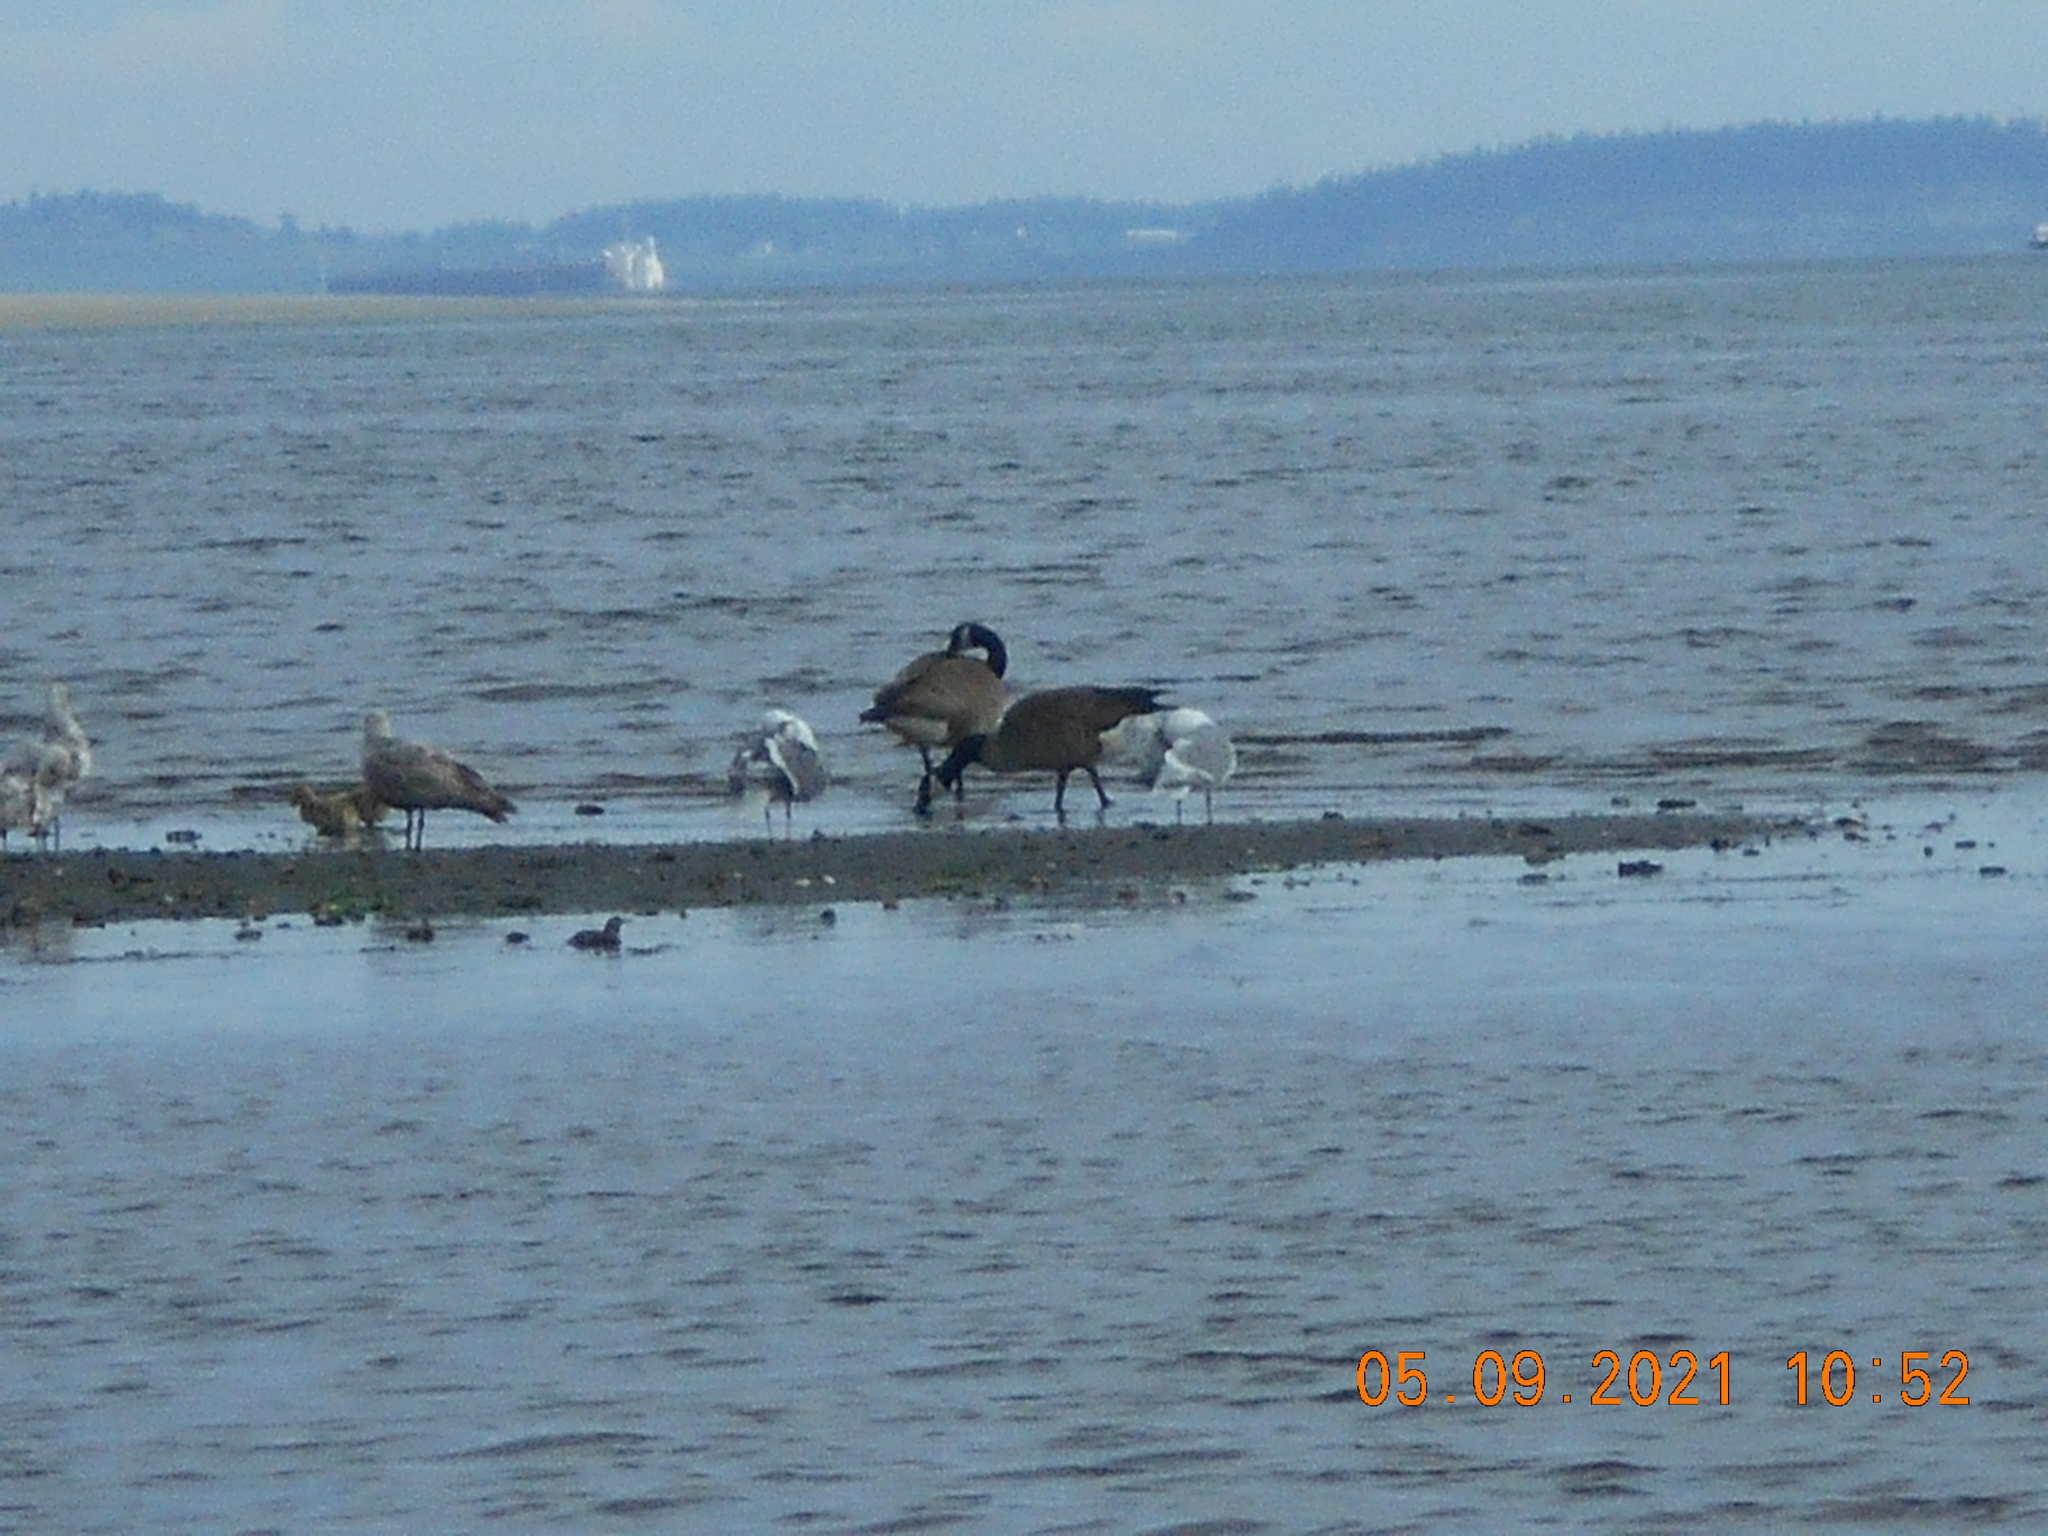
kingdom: Animalia
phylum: Chordata
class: Aves
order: Anseriformes
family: Anatidae
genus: Branta
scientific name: Branta canadensis
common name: Canada goose
